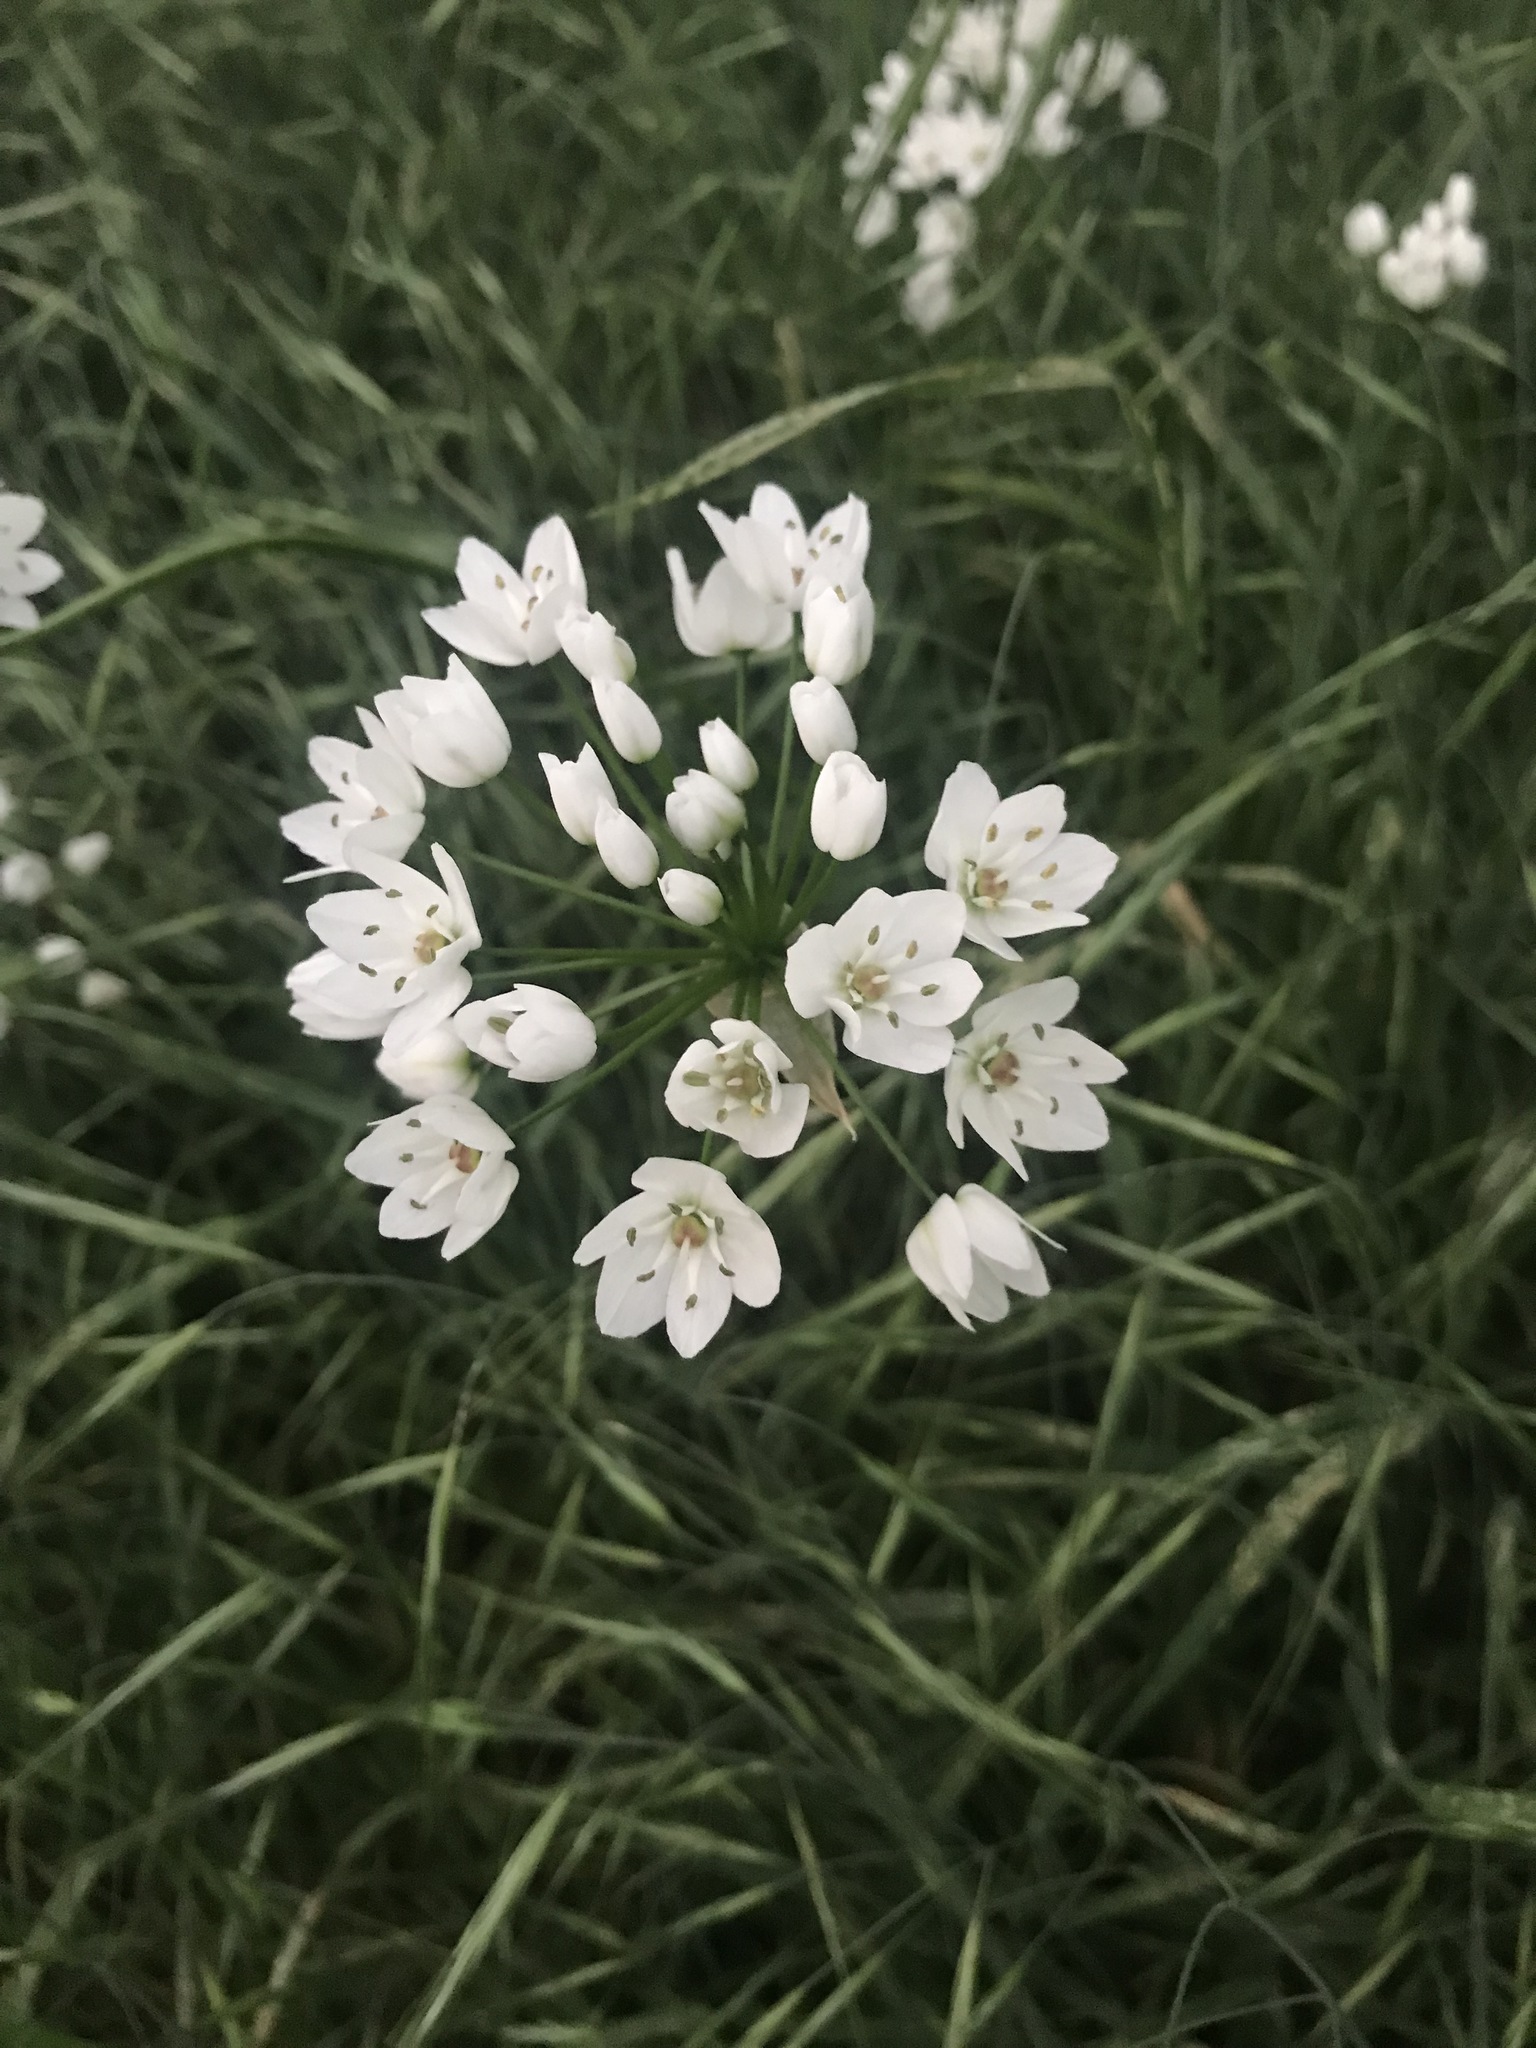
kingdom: Plantae
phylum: Tracheophyta
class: Liliopsida
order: Asparagales
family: Amaryllidaceae
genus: Allium
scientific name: Allium neapolitanum
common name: Neapolitan garlic
